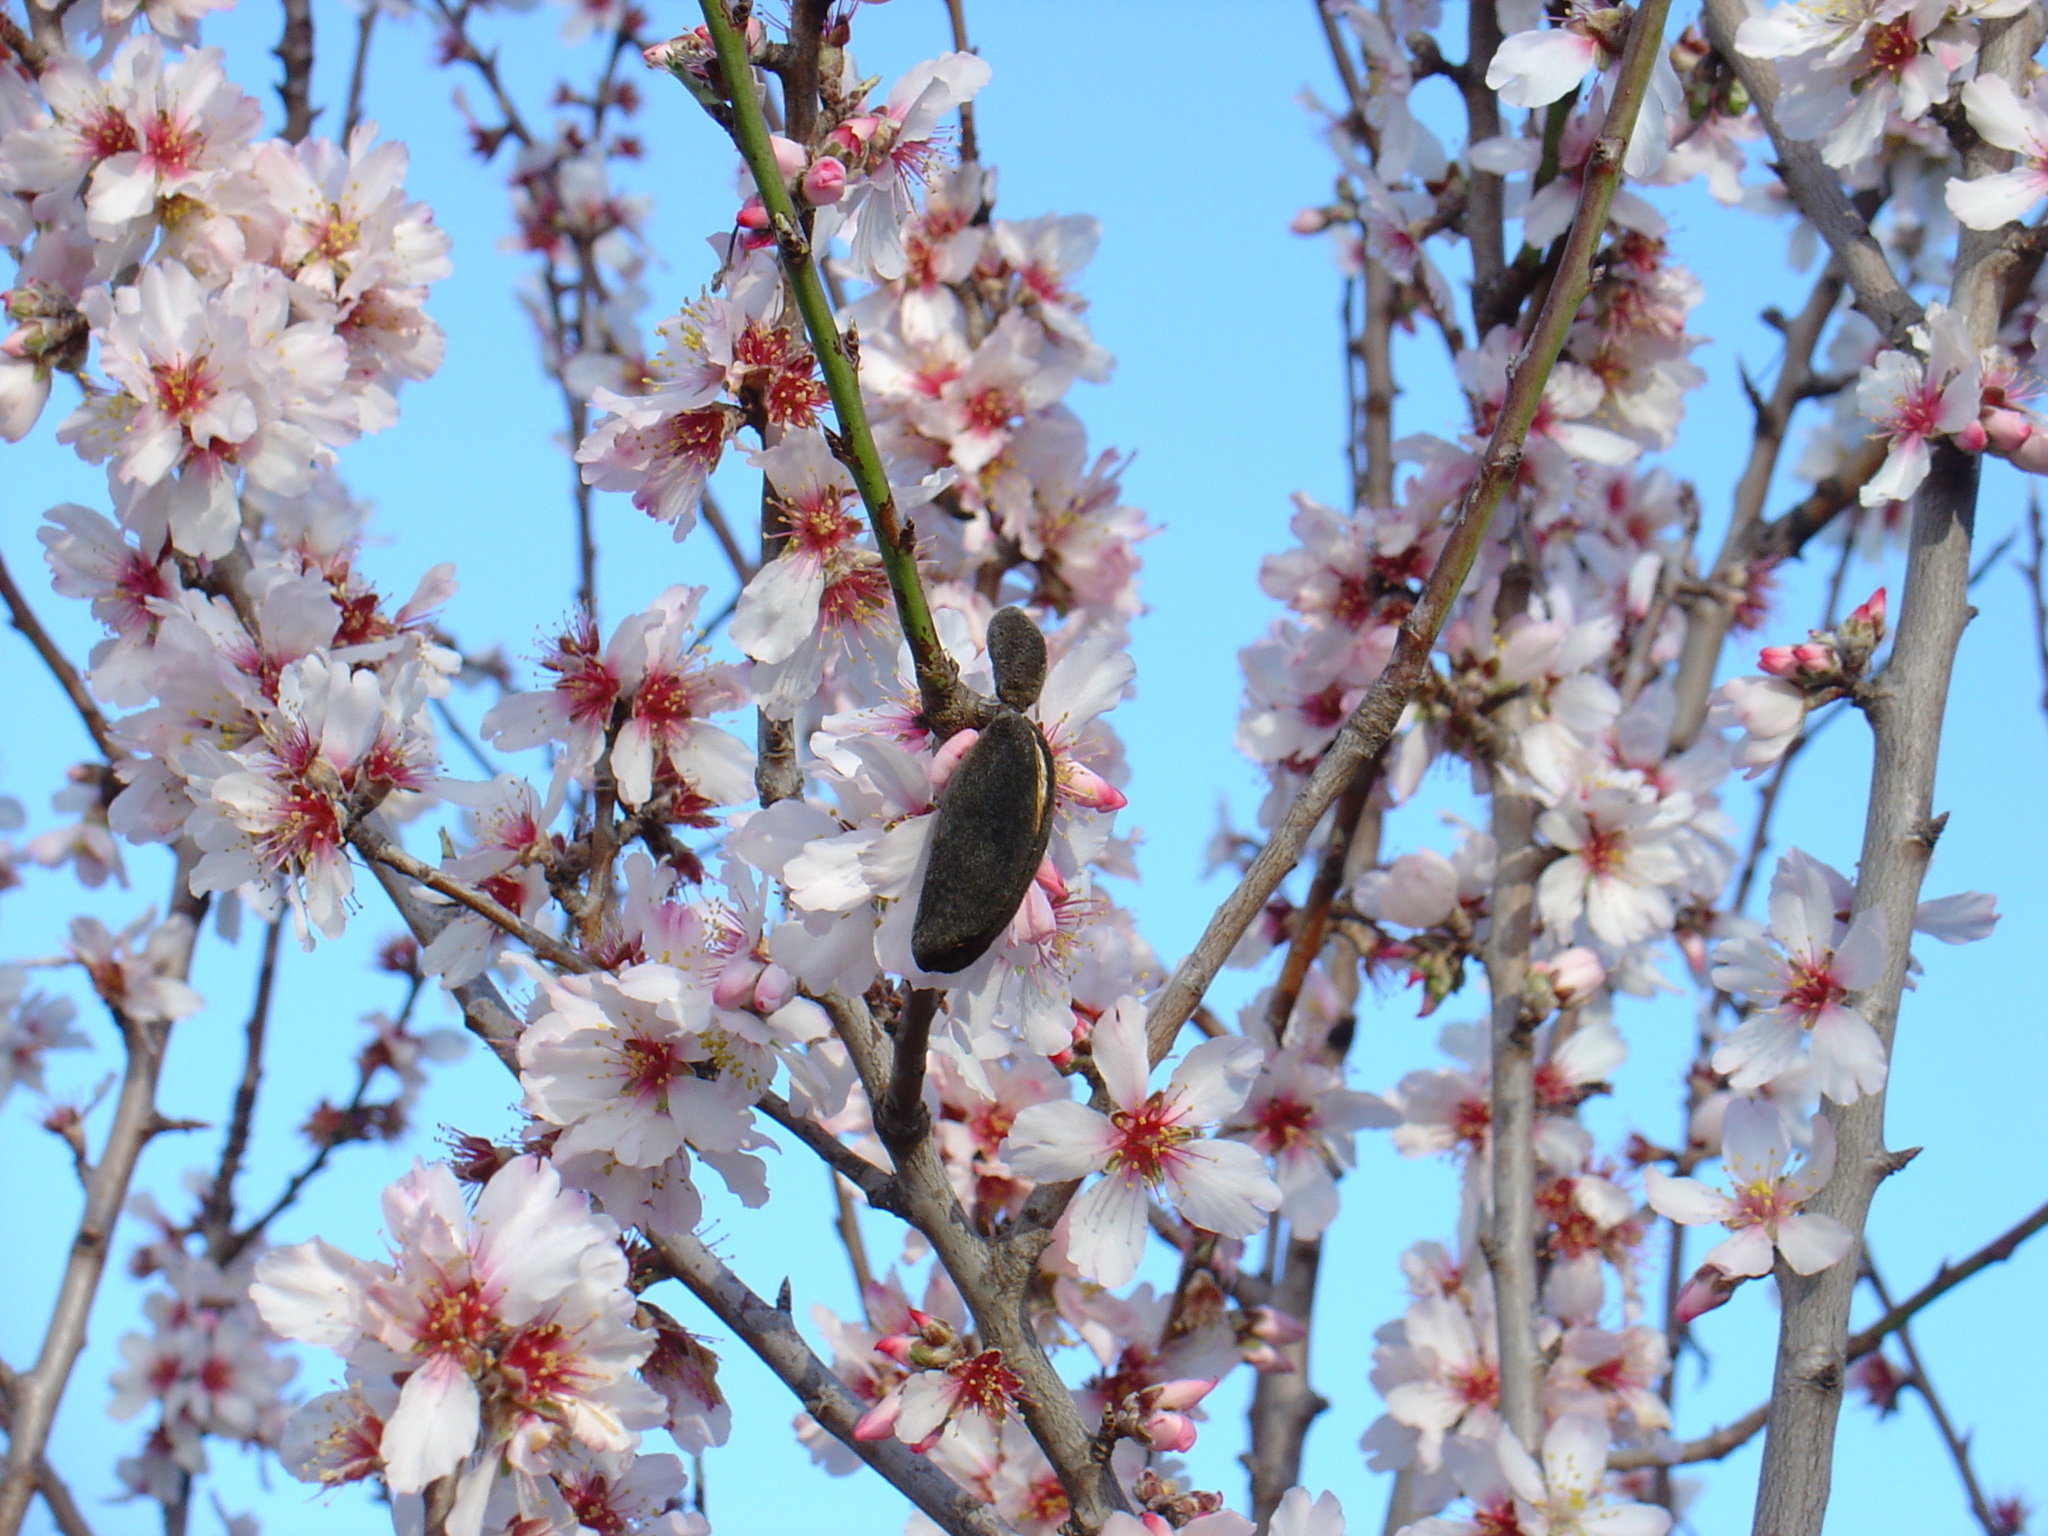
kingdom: Plantae
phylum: Tracheophyta
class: Magnoliopsida
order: Rosales
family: Rosaceae
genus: Prunus
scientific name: Prunus amygdalus
